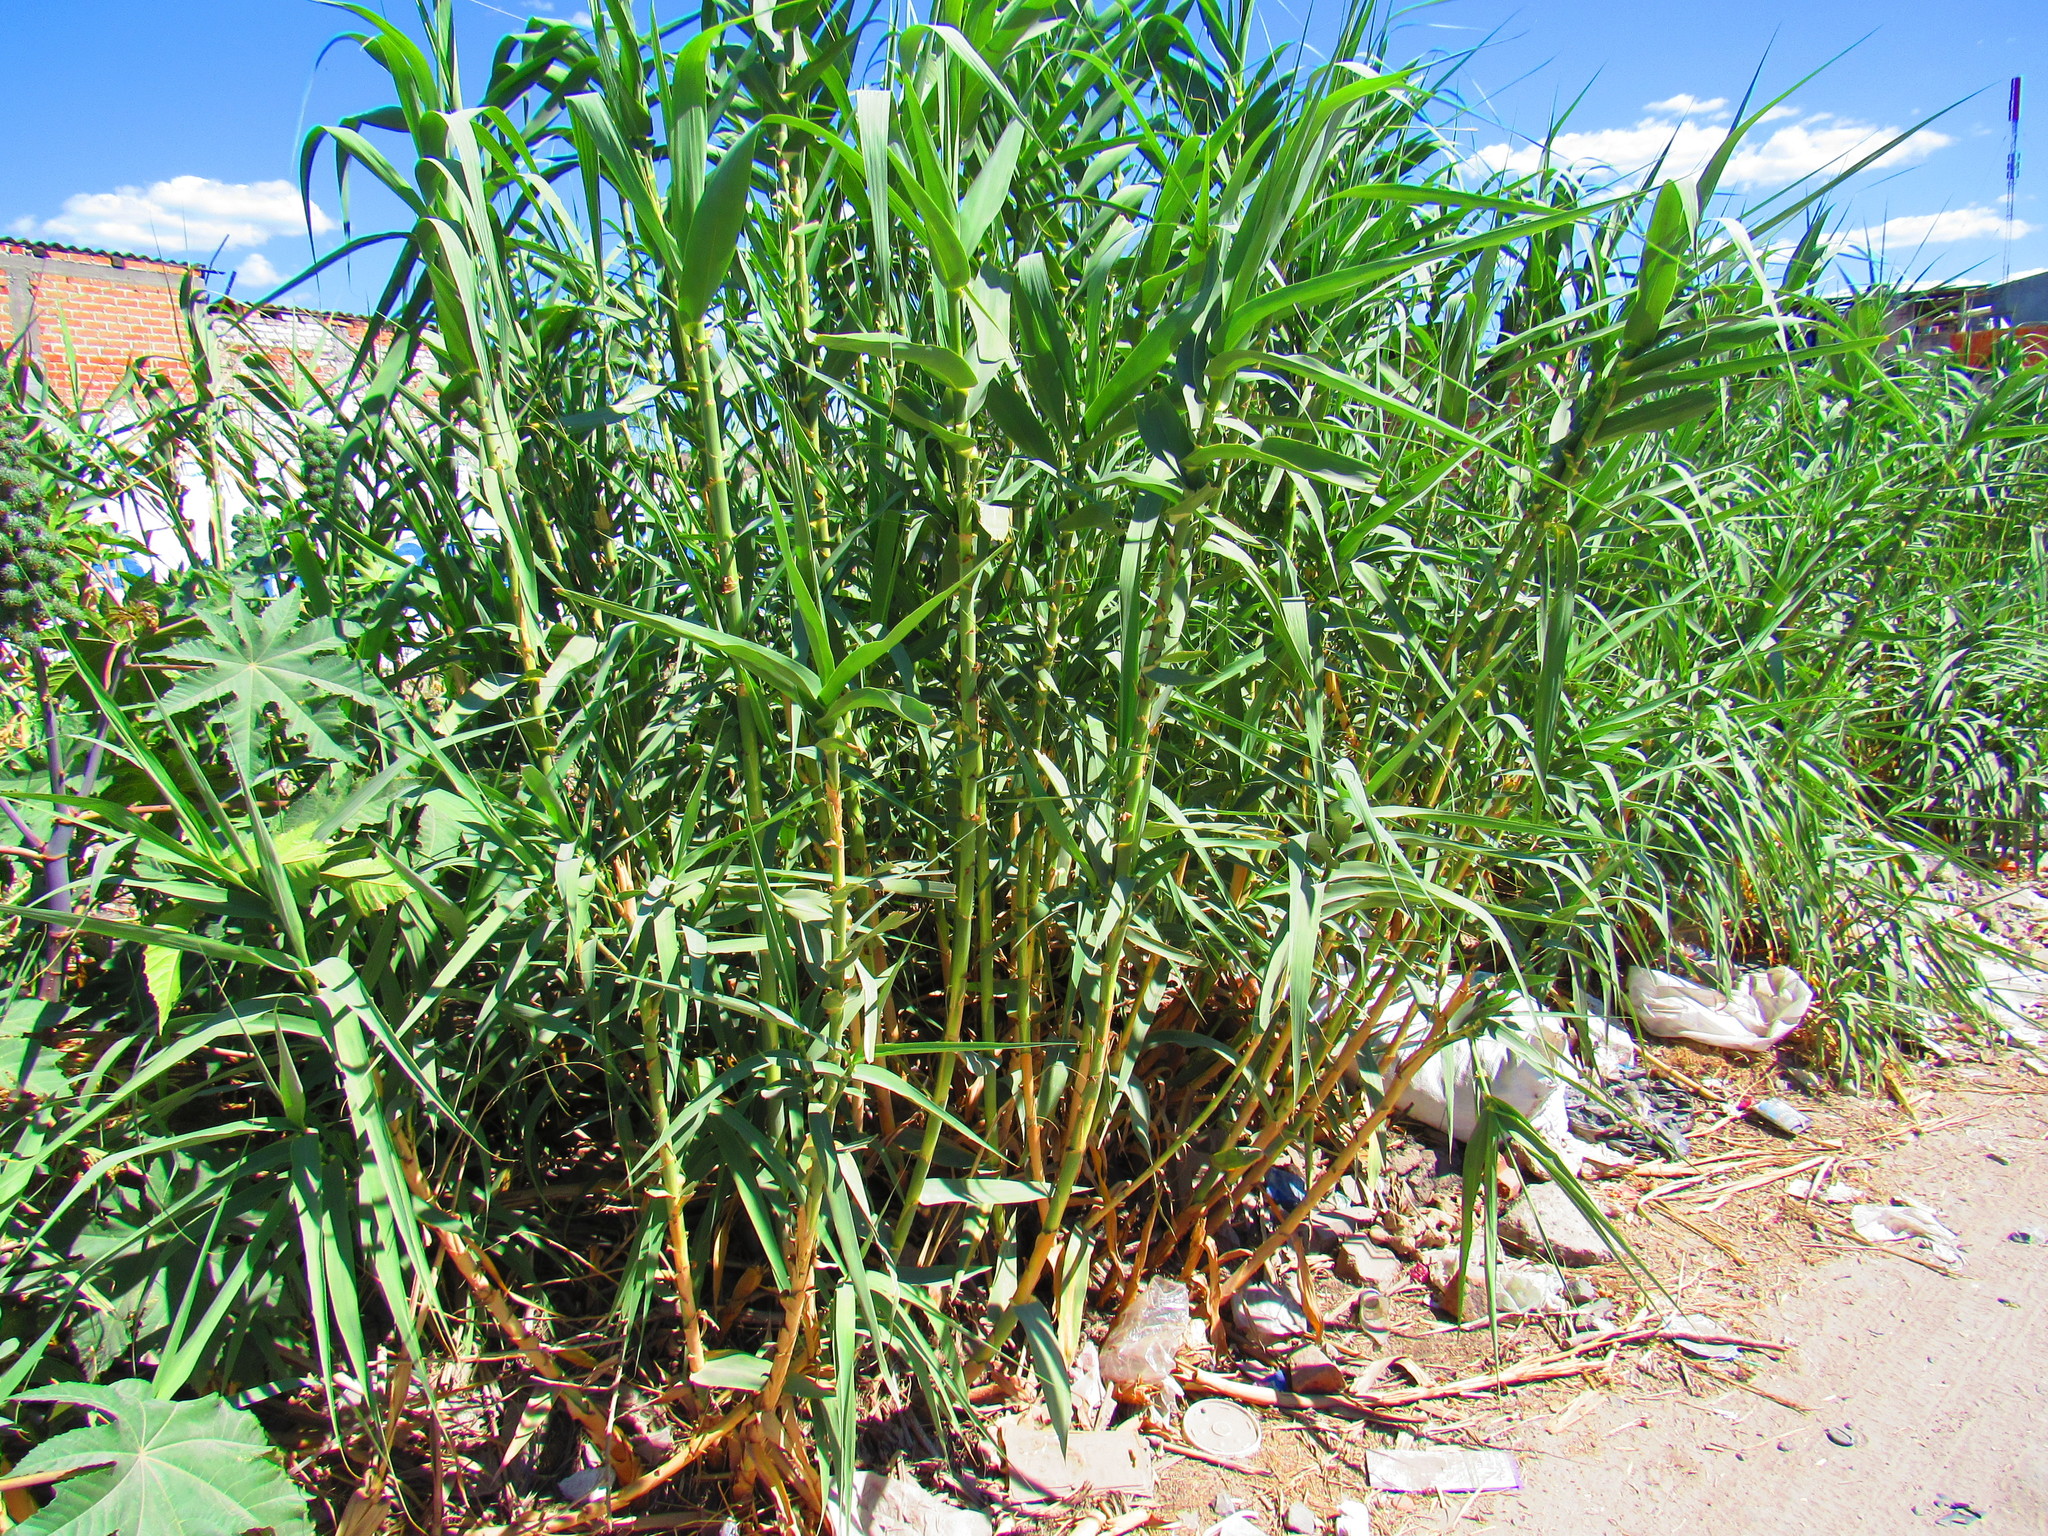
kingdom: Plantae
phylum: Tracheophyta
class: Magnoliopsida
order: Malpighiales
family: Euphorbiaceae
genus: Ricinus
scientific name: Ricinus communis
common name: Castor-oil-plant
